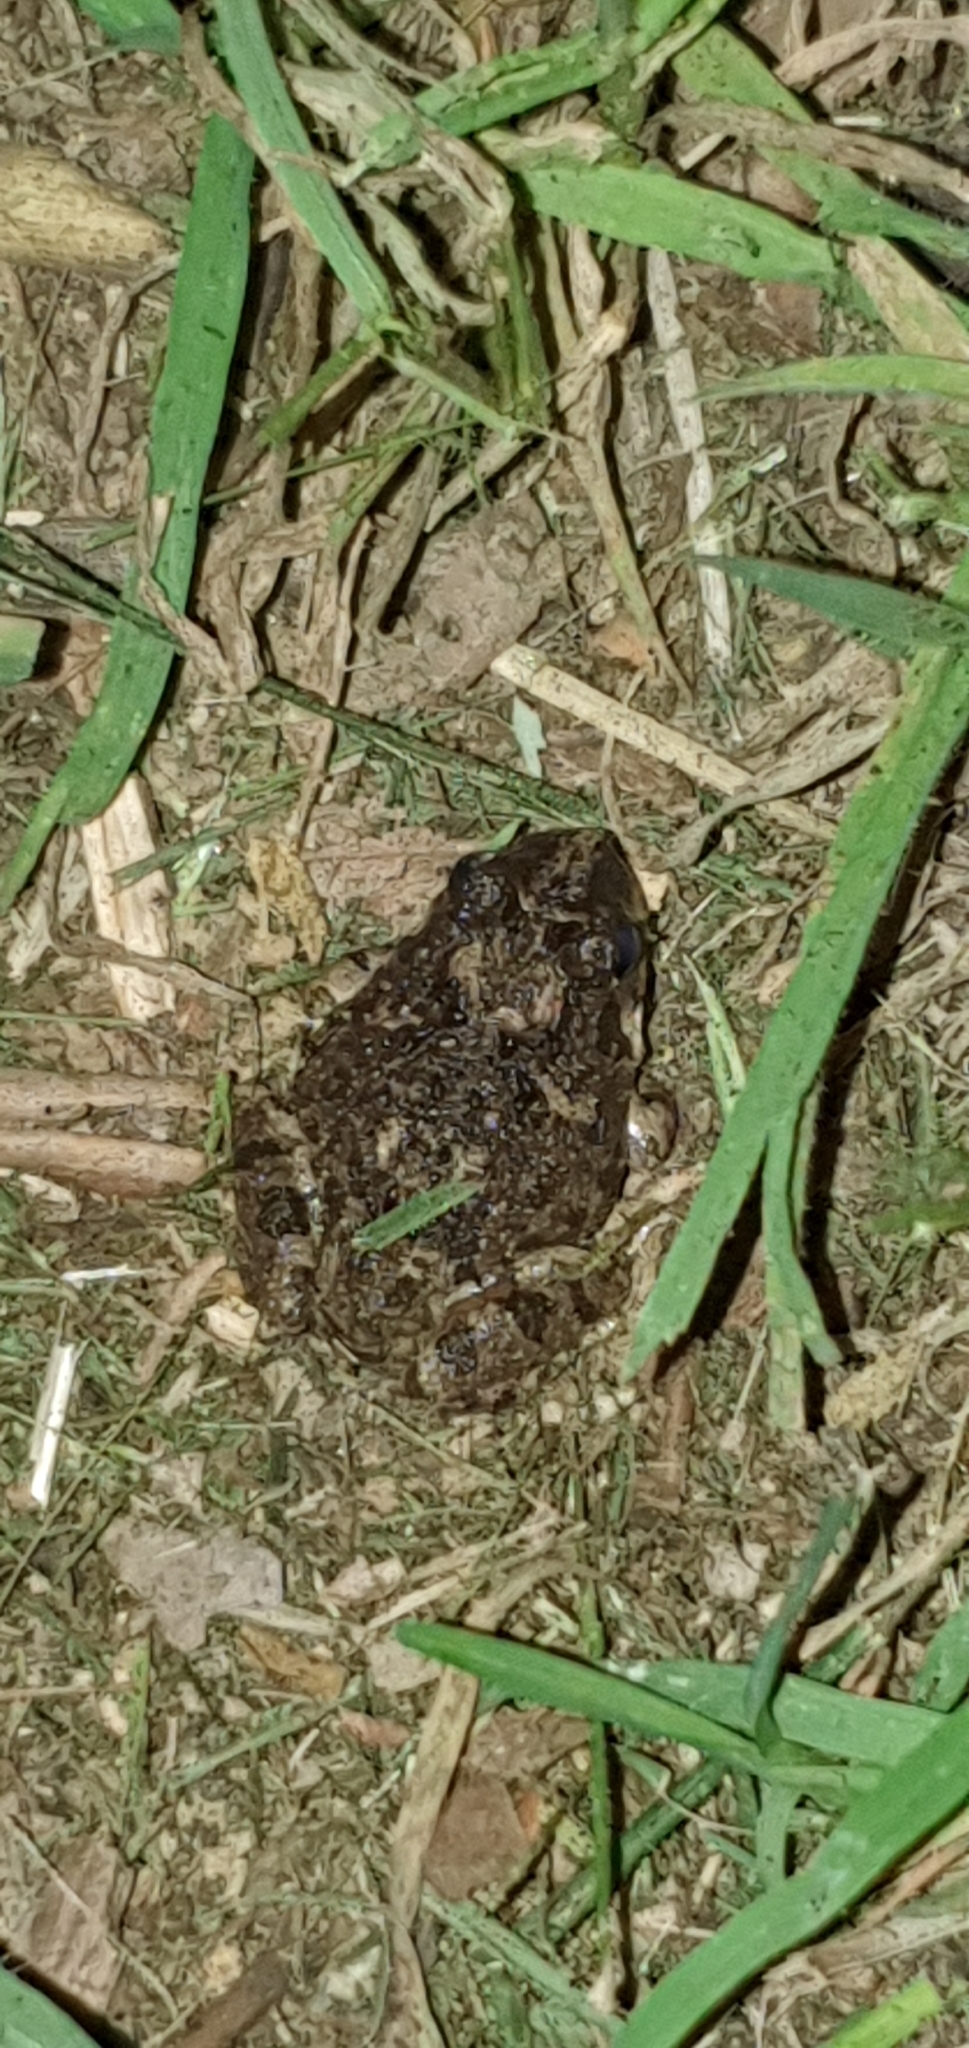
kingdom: Animalia
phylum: Chordata
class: Amphibia
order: Anura
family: Limnodynastidae
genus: Platyplectrum
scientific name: Platyplectrum ornatum
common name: Ornate burrowing frog
